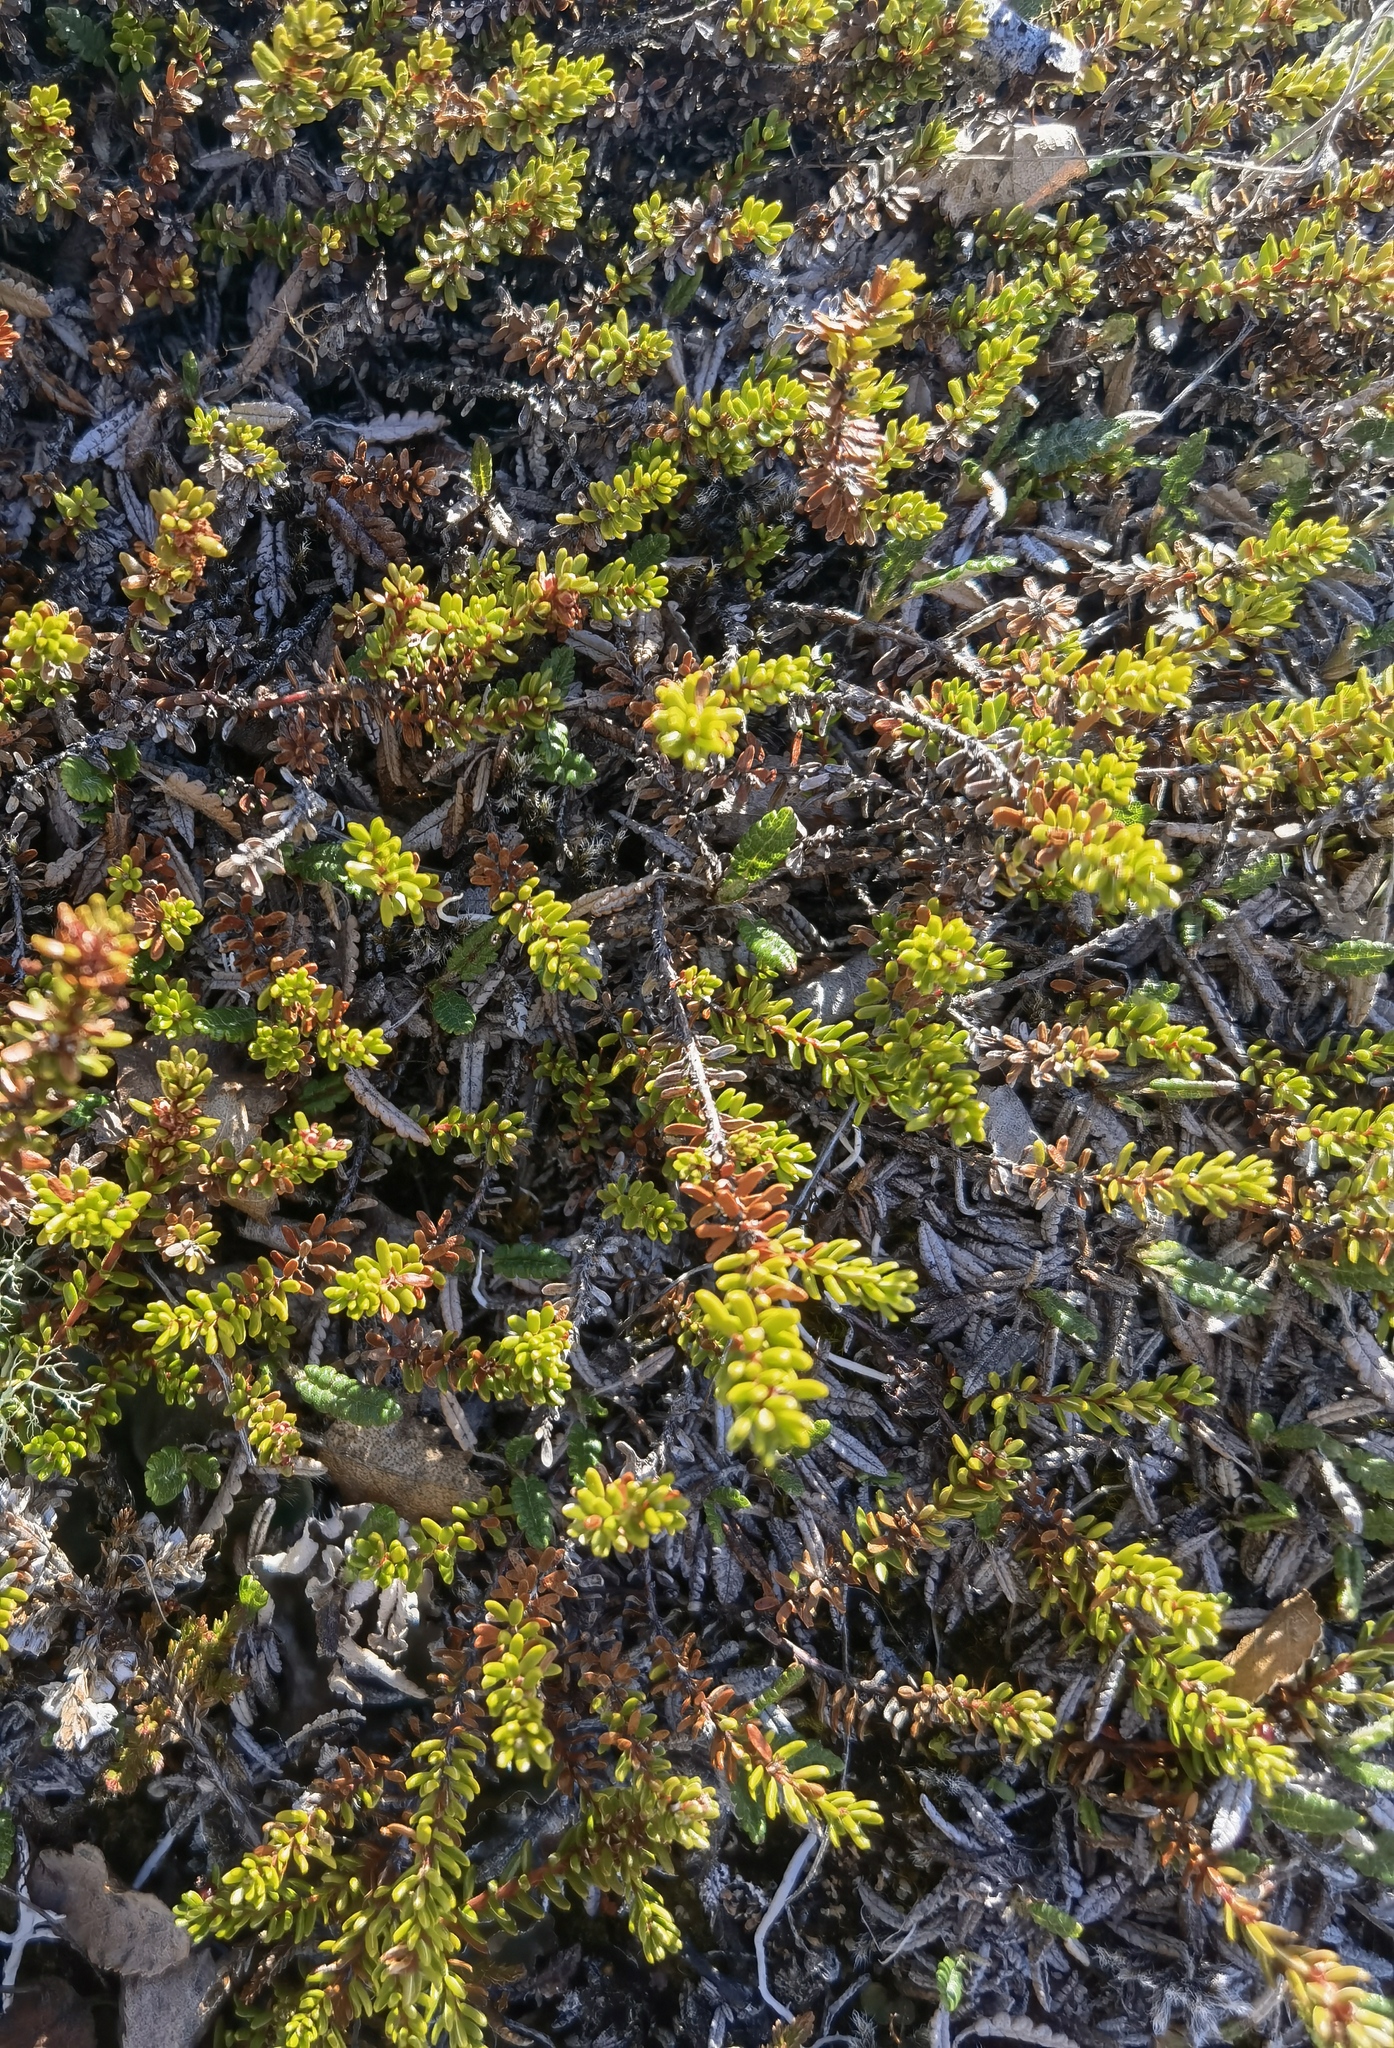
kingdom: Plantae
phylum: Tracheophyta
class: Magnoliopsida
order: Ericales
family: Ericaceae
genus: Empetrum
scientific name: Empetrum nigrum
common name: Black crowberry
